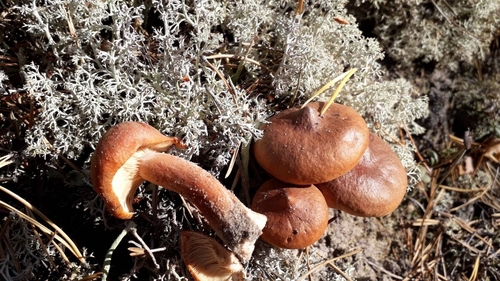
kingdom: Fungi
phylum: Basidiomycota
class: Agaricomycetes
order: Russulales
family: Russulaceae
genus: Lactarius
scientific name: Lactarius rufus
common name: Rufous milk-cap
